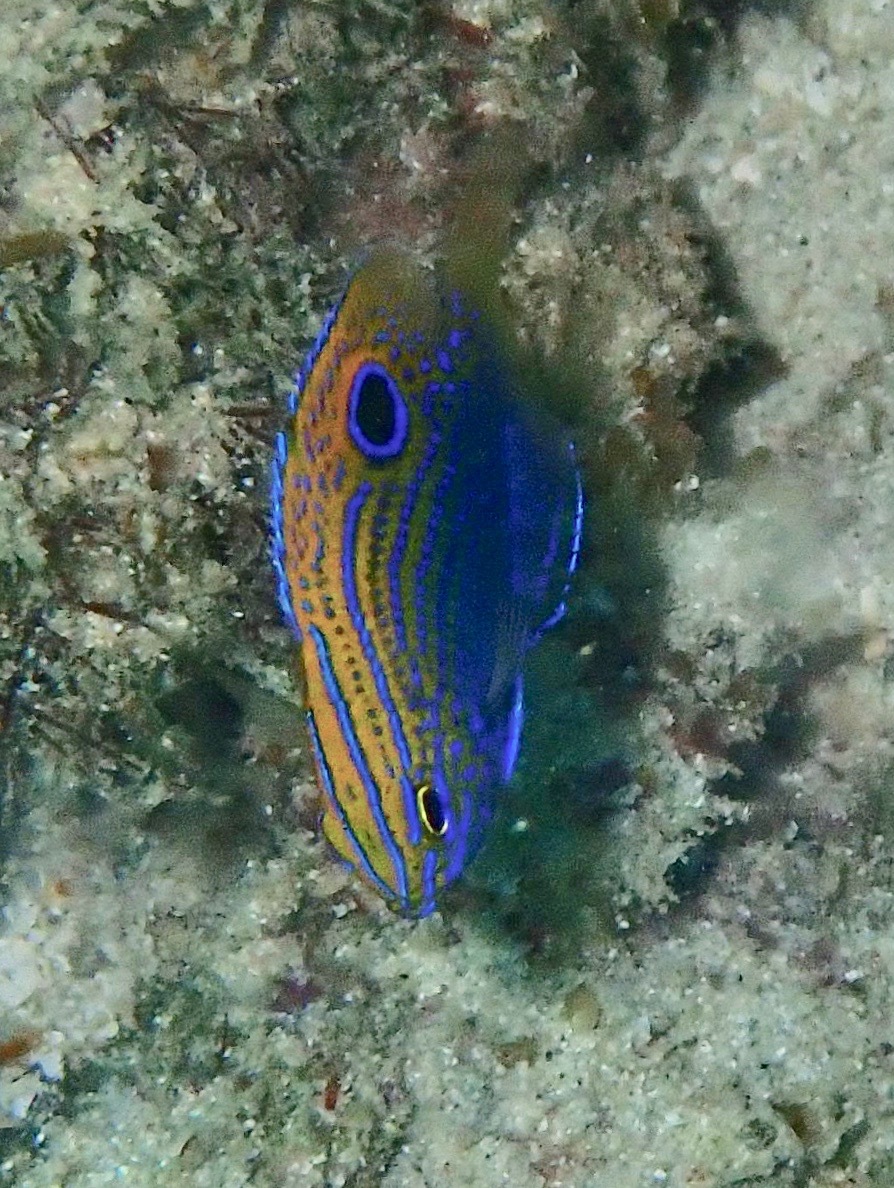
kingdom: Animalia
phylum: Chordata
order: Perciformes
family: Pomacentridae
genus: Pomacentrus
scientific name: Pomacentrus vaiuli
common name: Princess damsel
